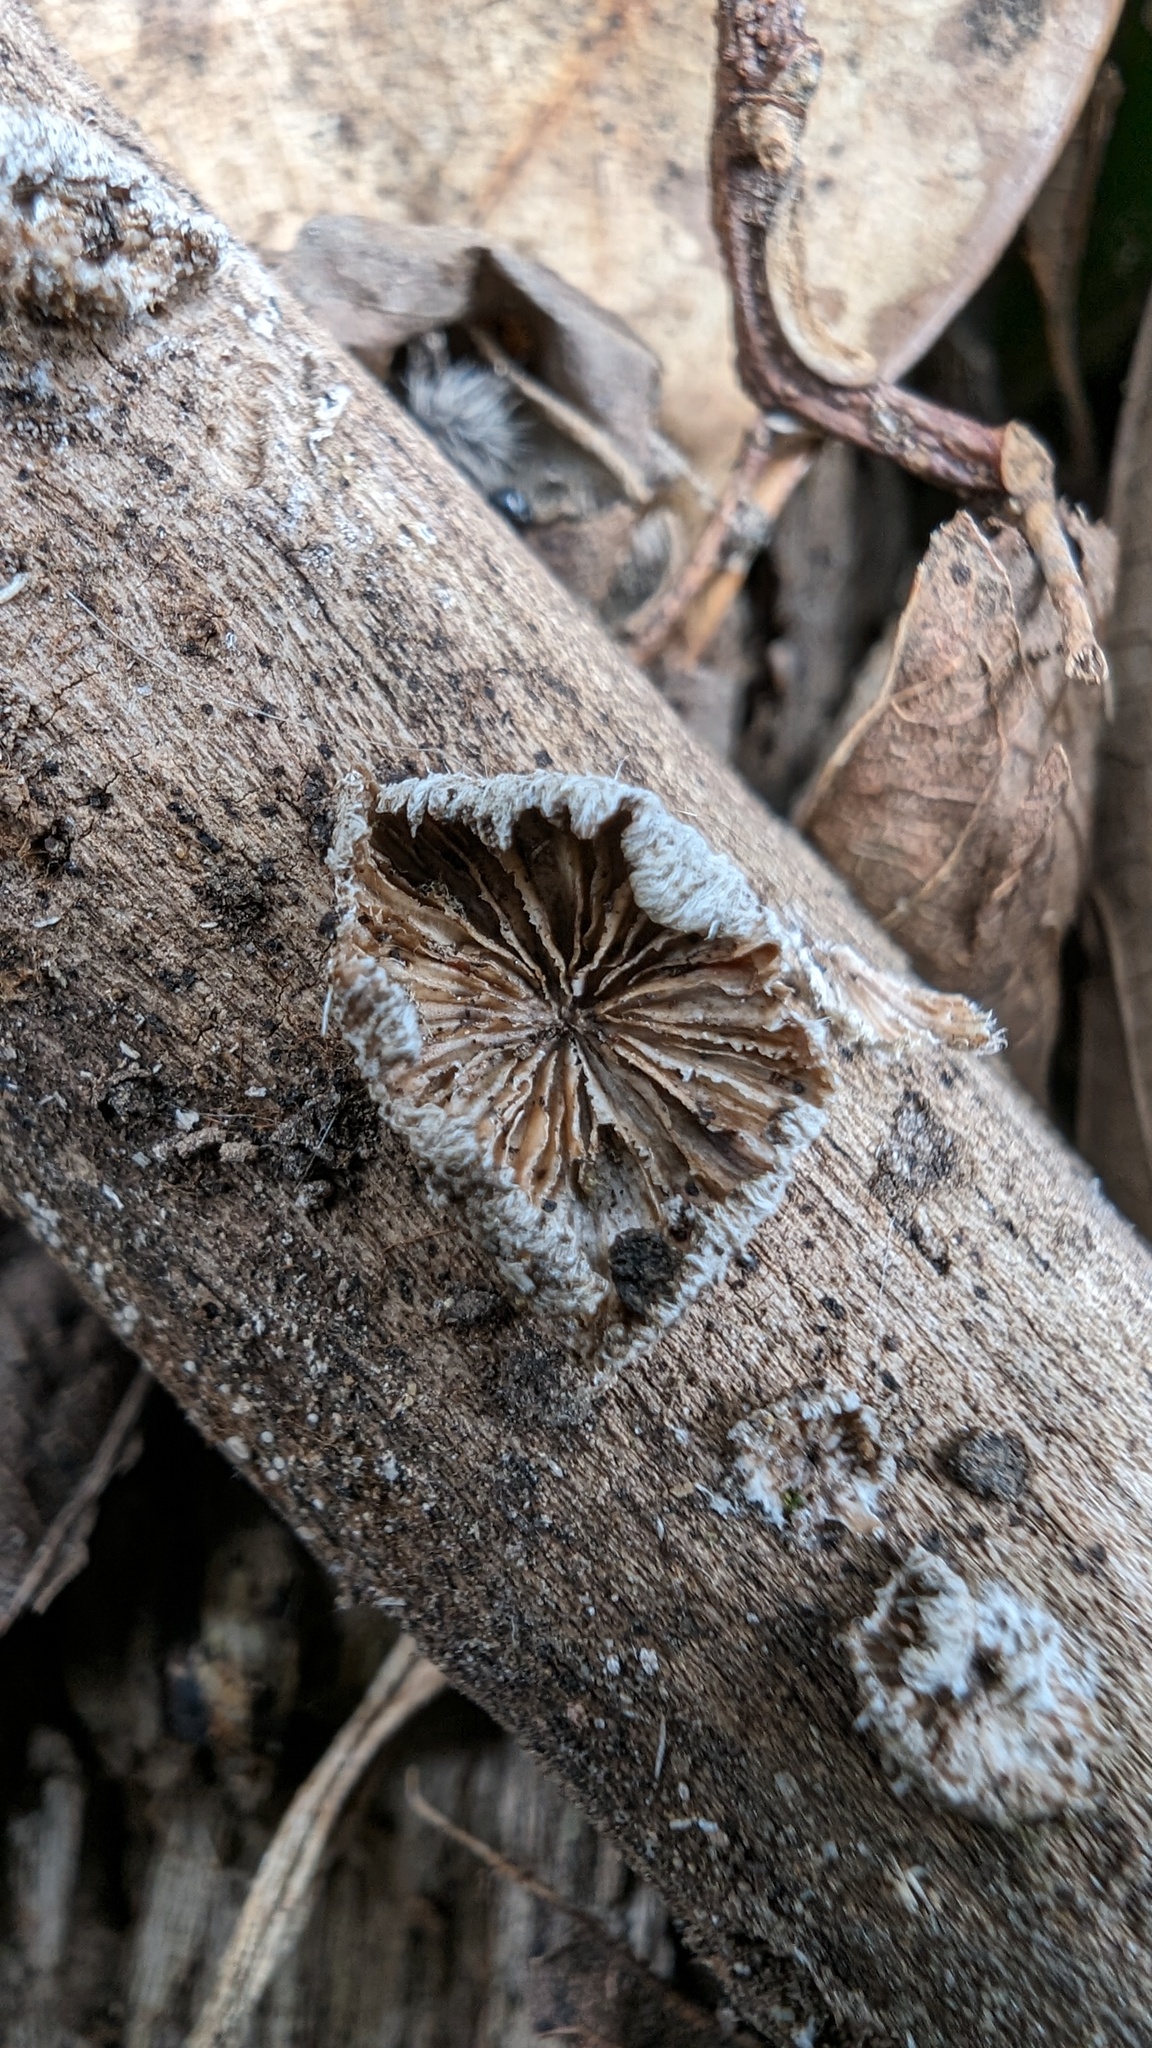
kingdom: Fungi
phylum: Basidiomycota
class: Agaricomycetes
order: Agaricales
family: Schizophyllaceae
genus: Schizophyllum
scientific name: Schizophyllum commune
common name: Common porecrust
